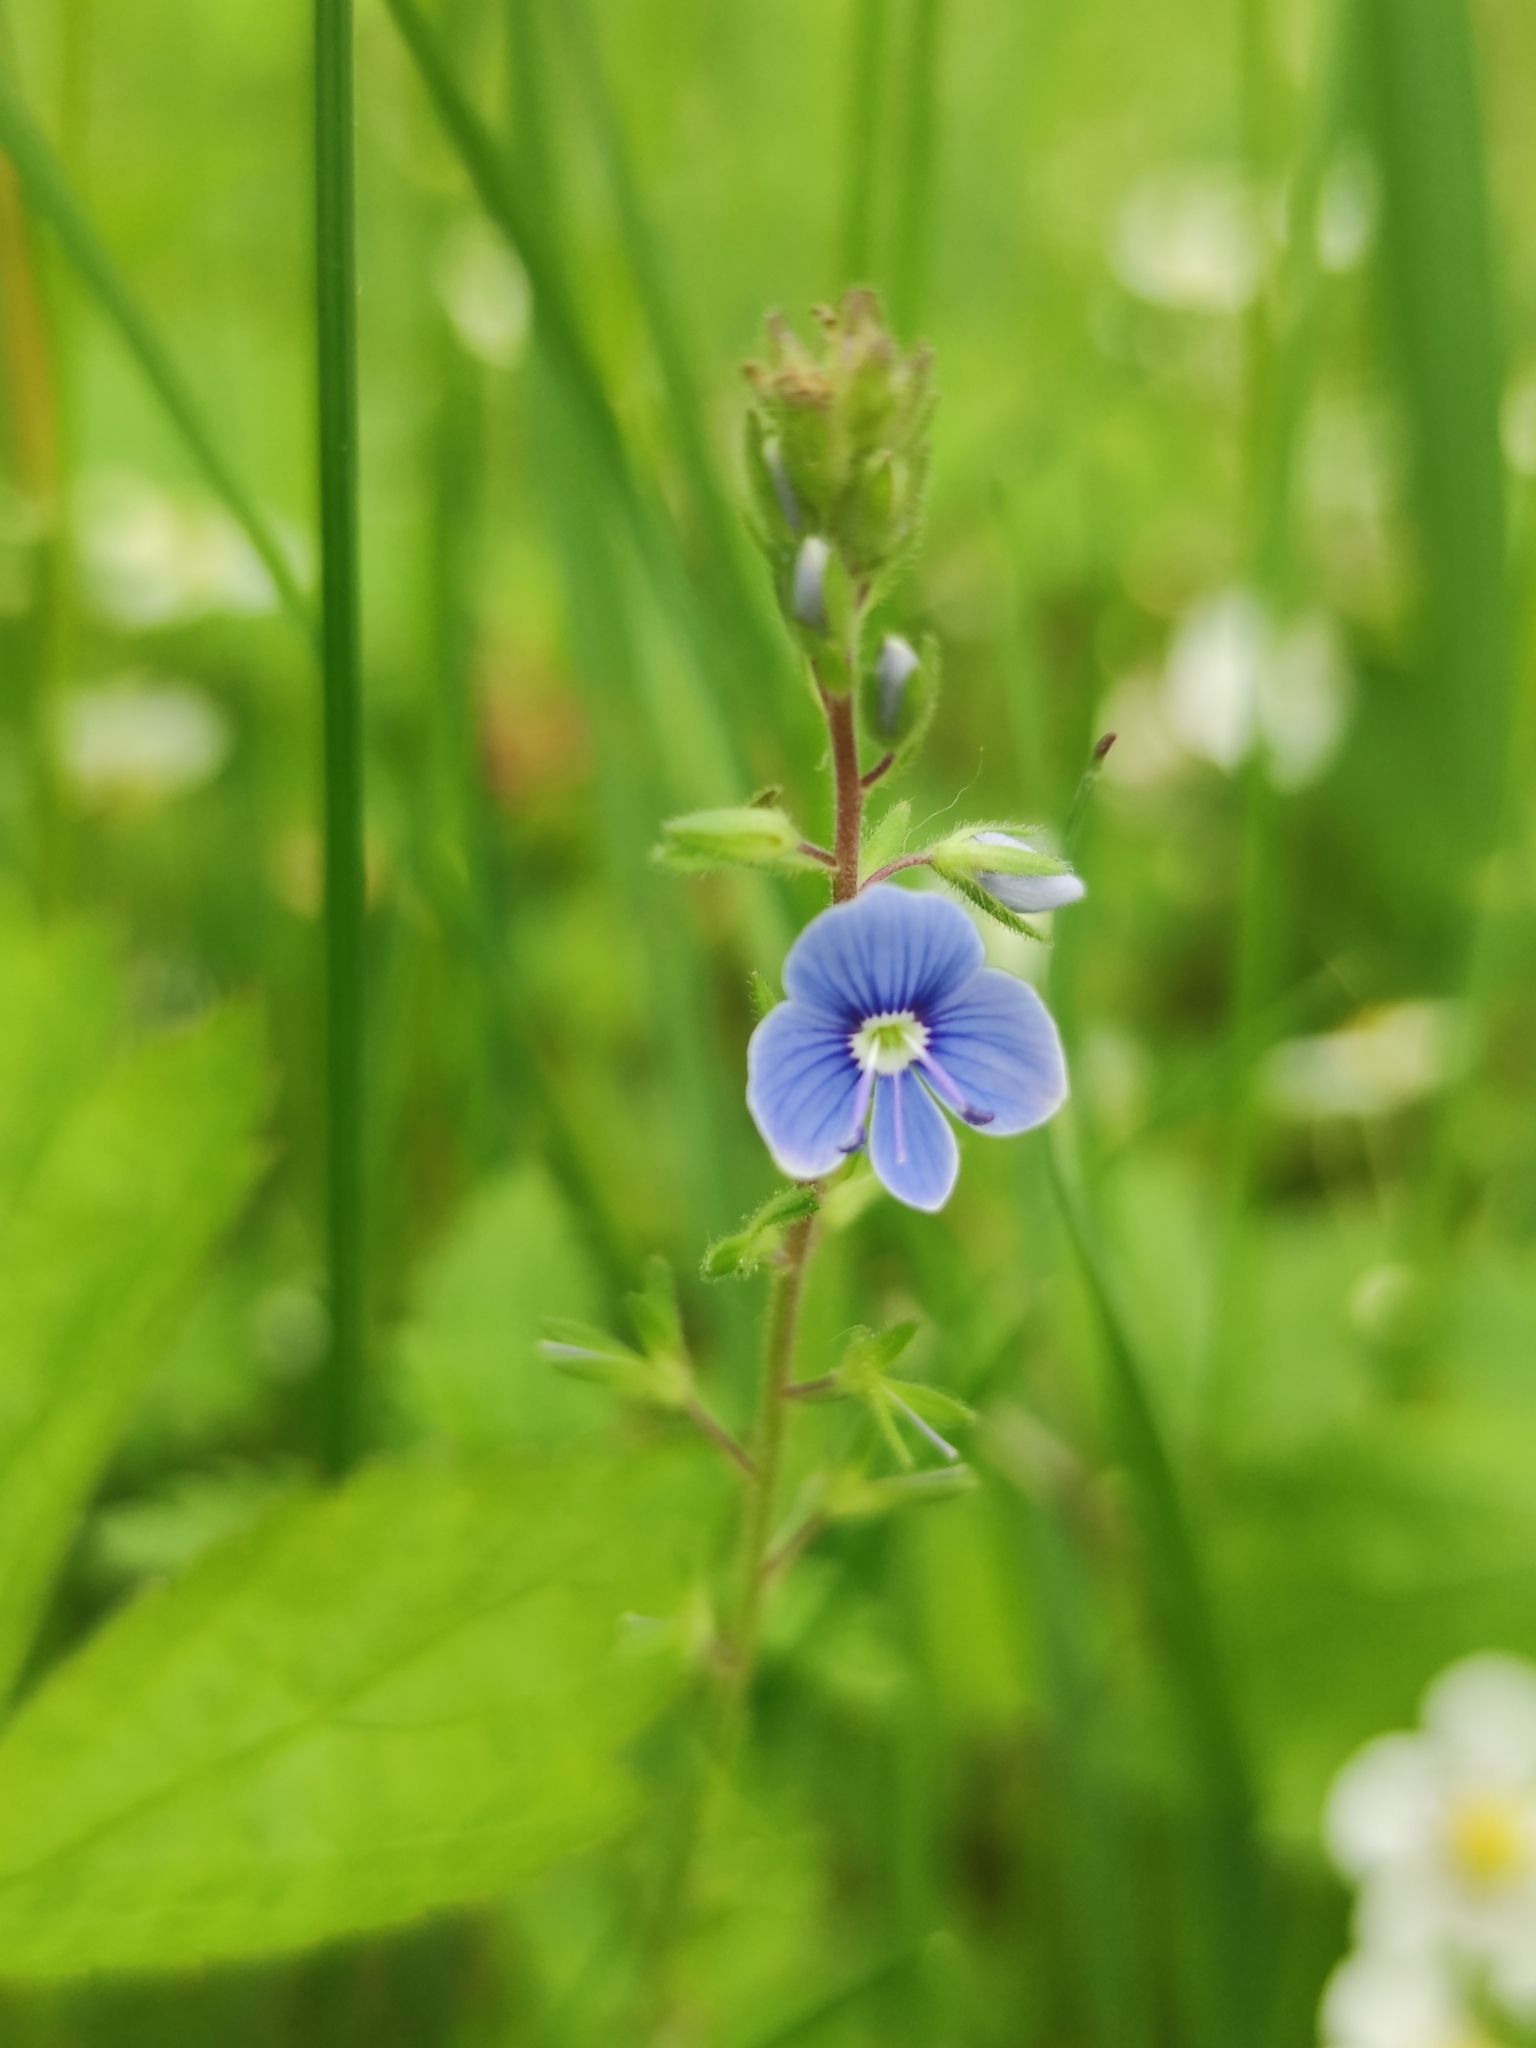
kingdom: Plantae
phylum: Tracheophyta
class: Magnoliopsida
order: Lamiales
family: Plantaginaceae
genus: Veronica
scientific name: Veronica chamaedrys
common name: Germander speedwell
